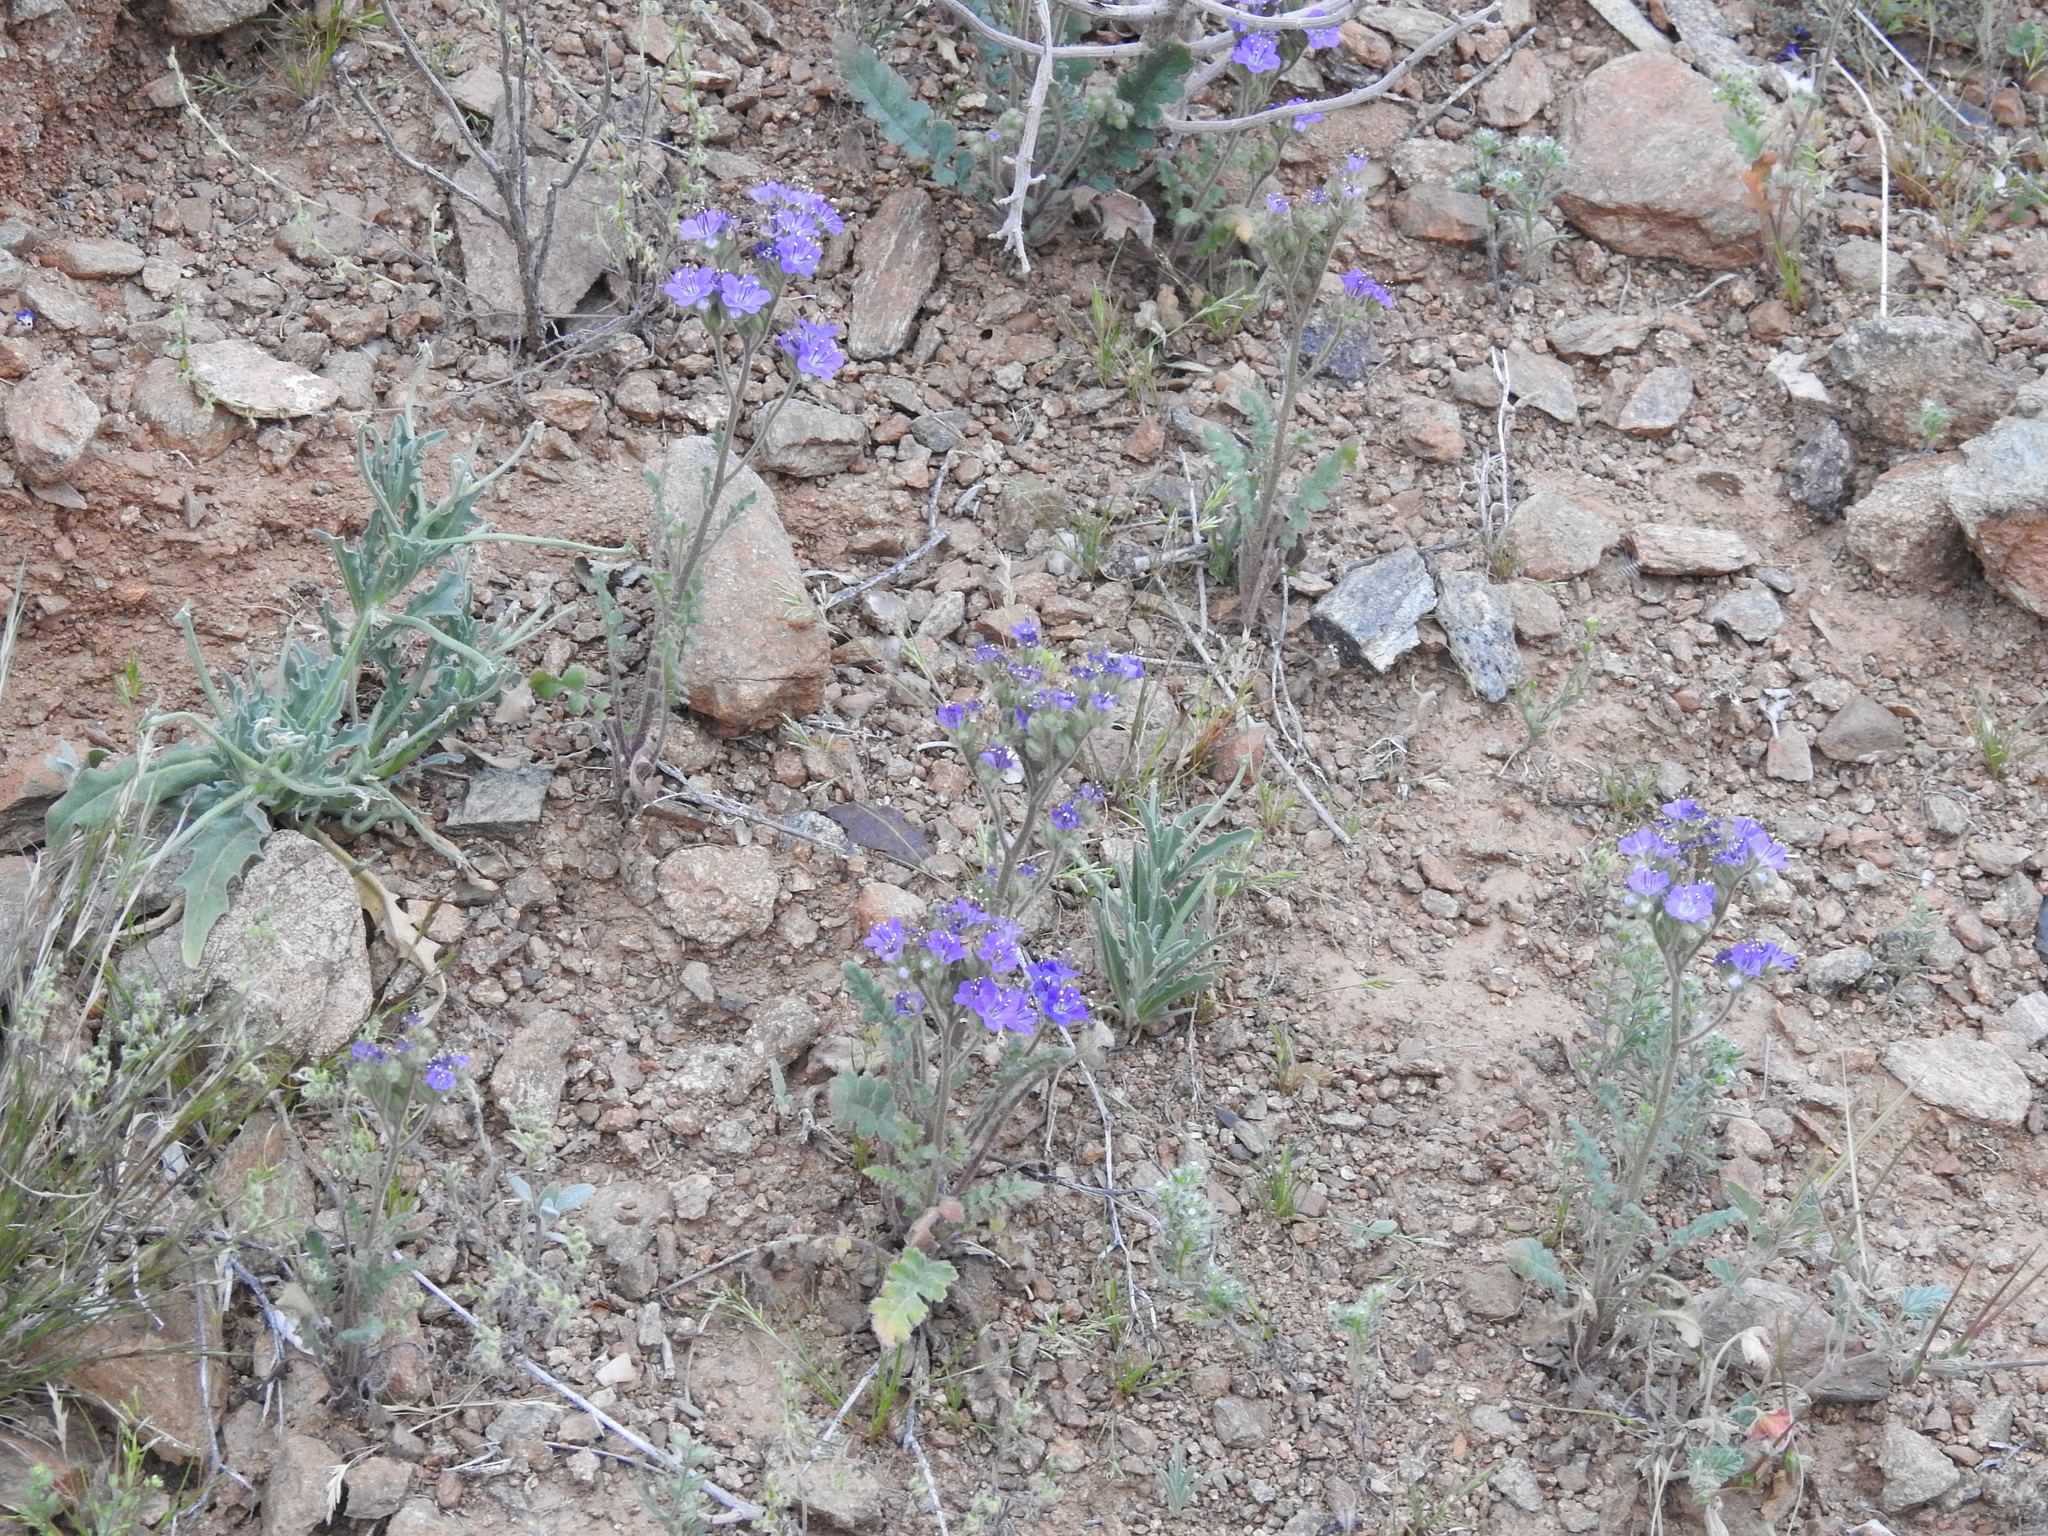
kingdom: Plantae
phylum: Tracheophyta
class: Magnoliopsida
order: Boraginales
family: Hydrophyllaceae
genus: Phacelia
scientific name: Phacelia crenulata
